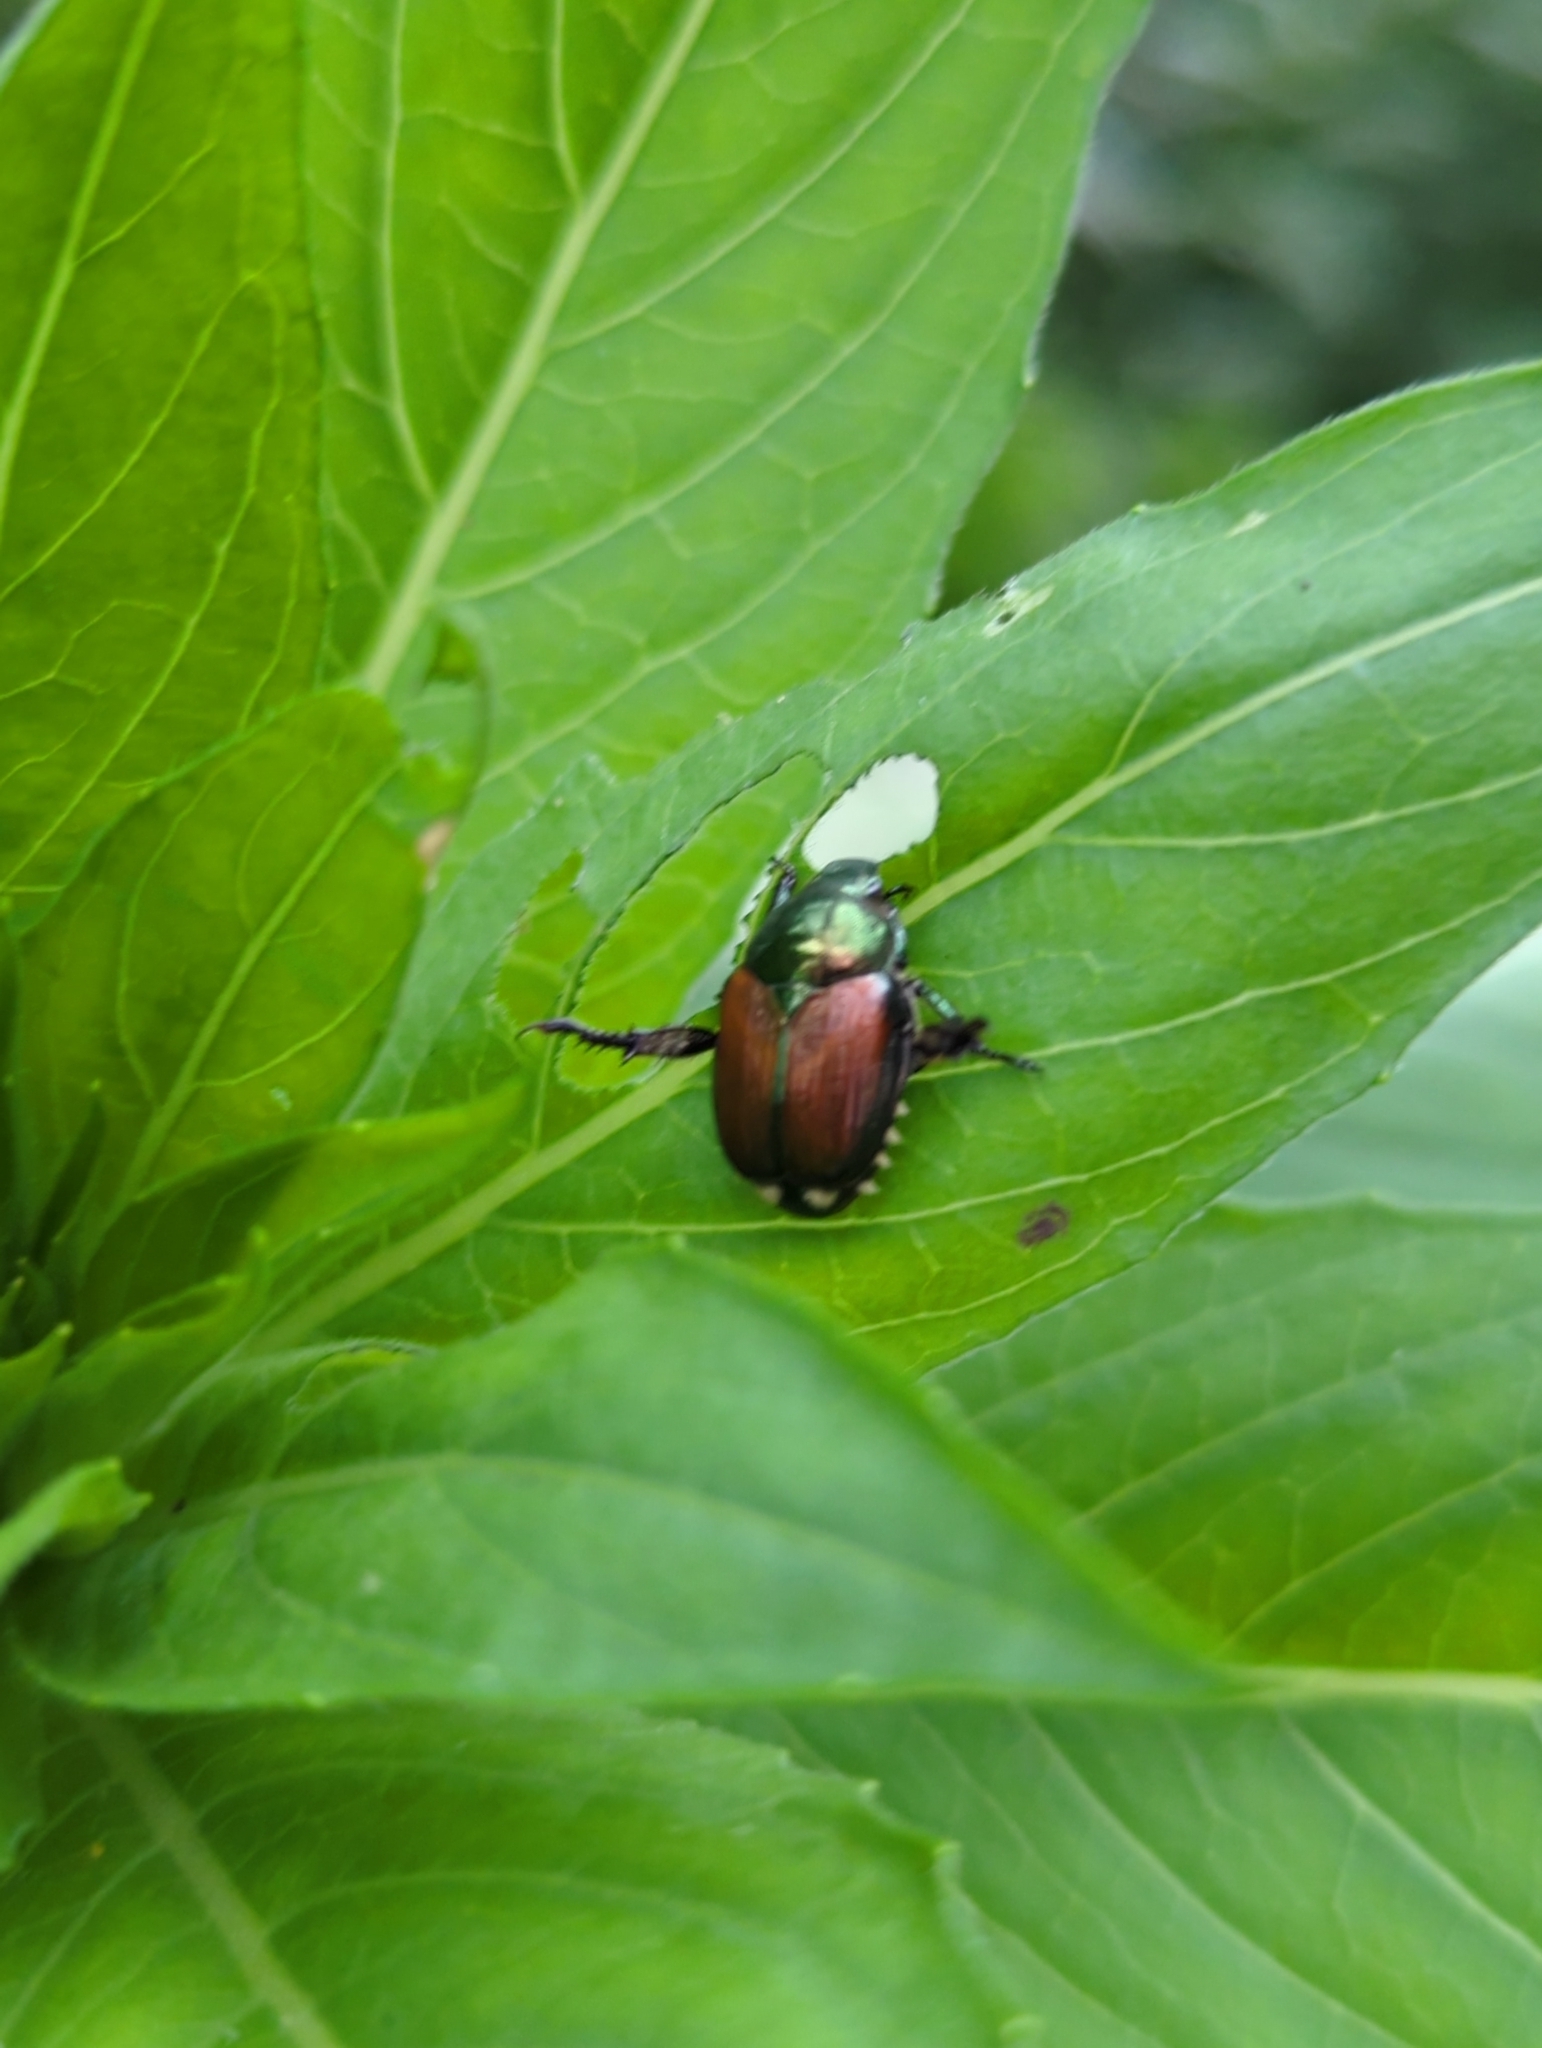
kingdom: Animalia
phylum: Arthropoda
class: Insecta
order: Coleoptera
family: Scarabaeidae
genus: Popillia
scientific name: Popillia japonica
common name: Japanese beetle
